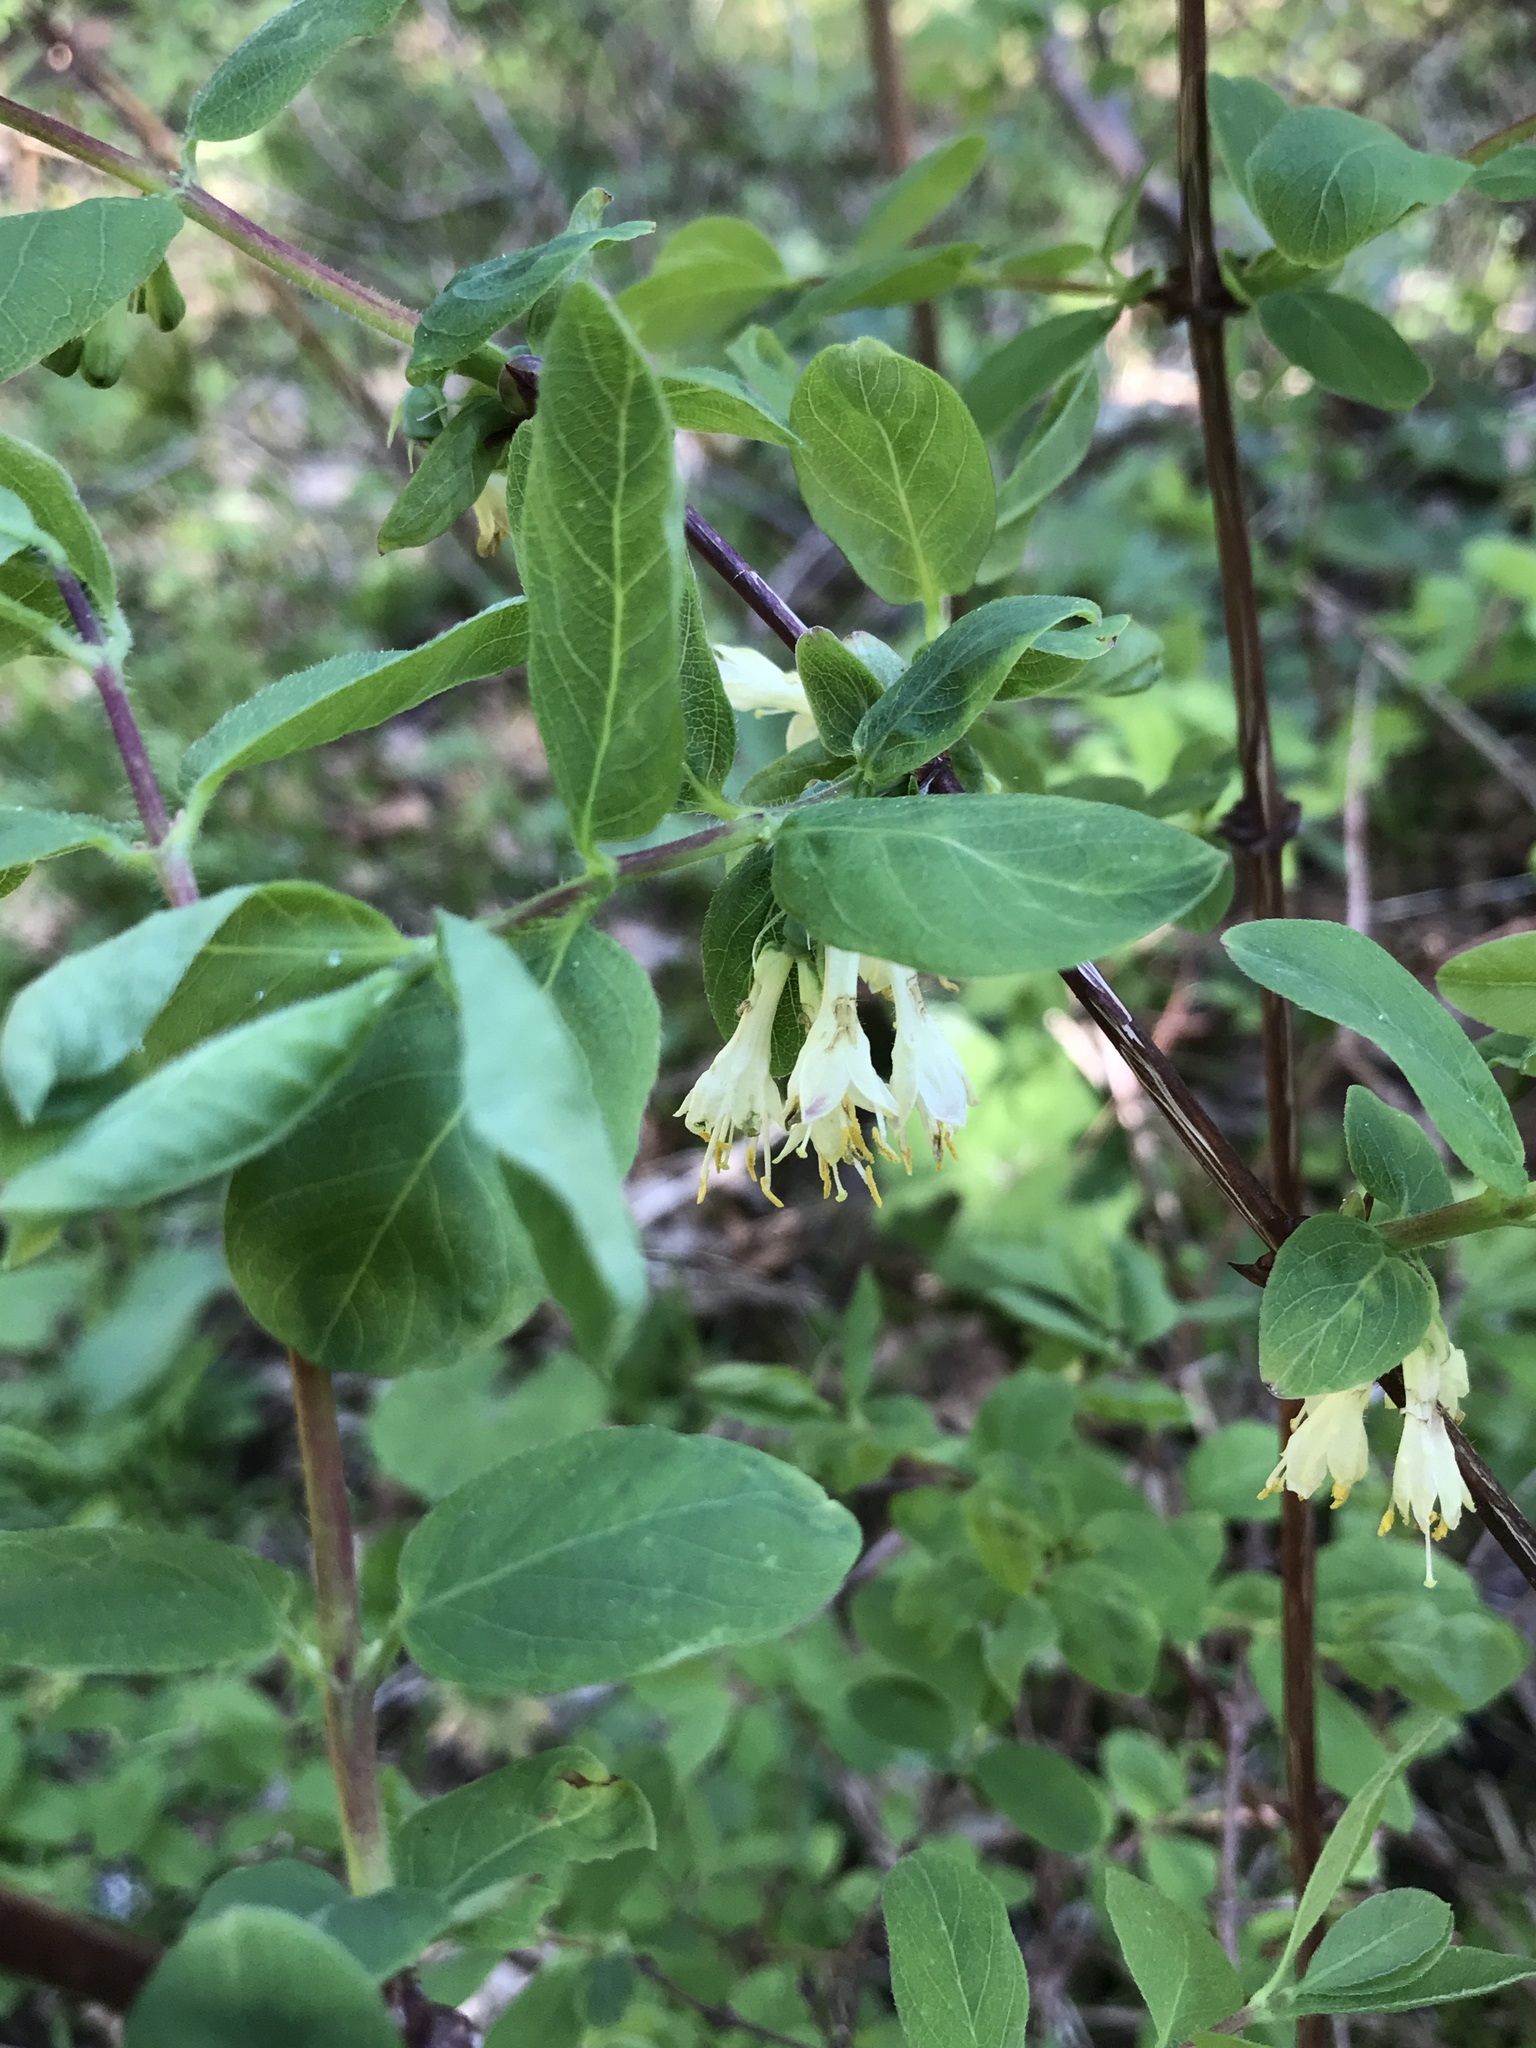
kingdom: Plantae
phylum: Tracheophyta
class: Magnoliopsida
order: Dipsacales
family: Caprifoliaceae
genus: Lonicera
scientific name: Lonicera caerulea
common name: Blue honeysuckle
